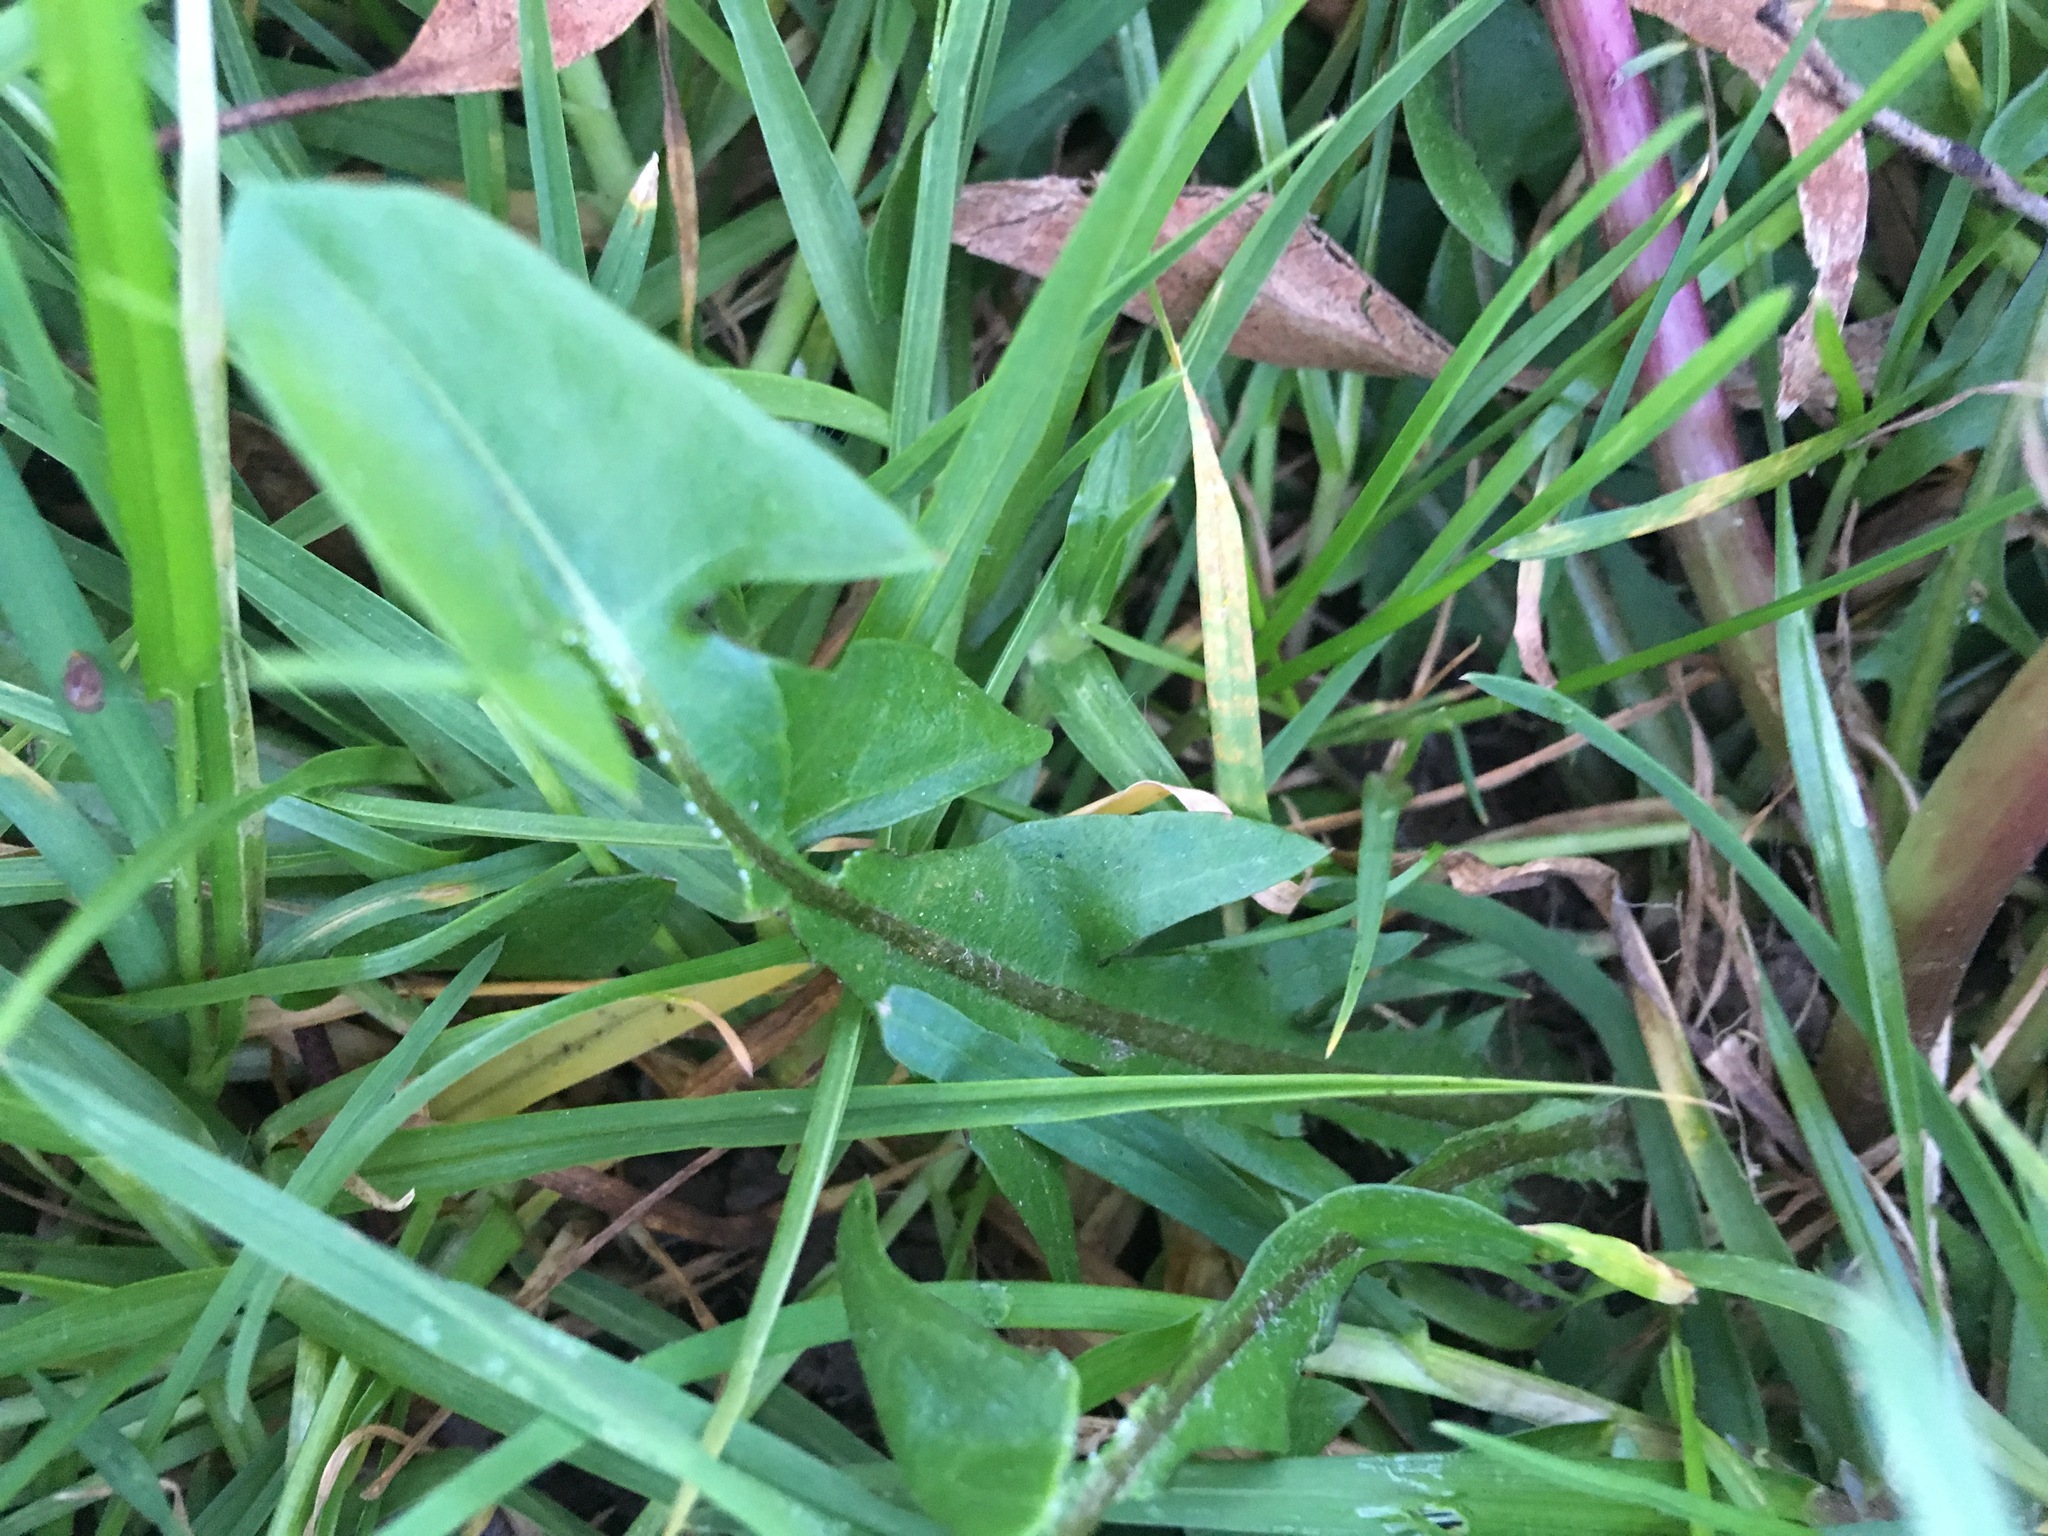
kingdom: Plantae
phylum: Tracheophyta
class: Magnoliopsida
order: Asterales
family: Asteraceae
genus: Taraxacum
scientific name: Taraxacum officinale
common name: Common dandelion
